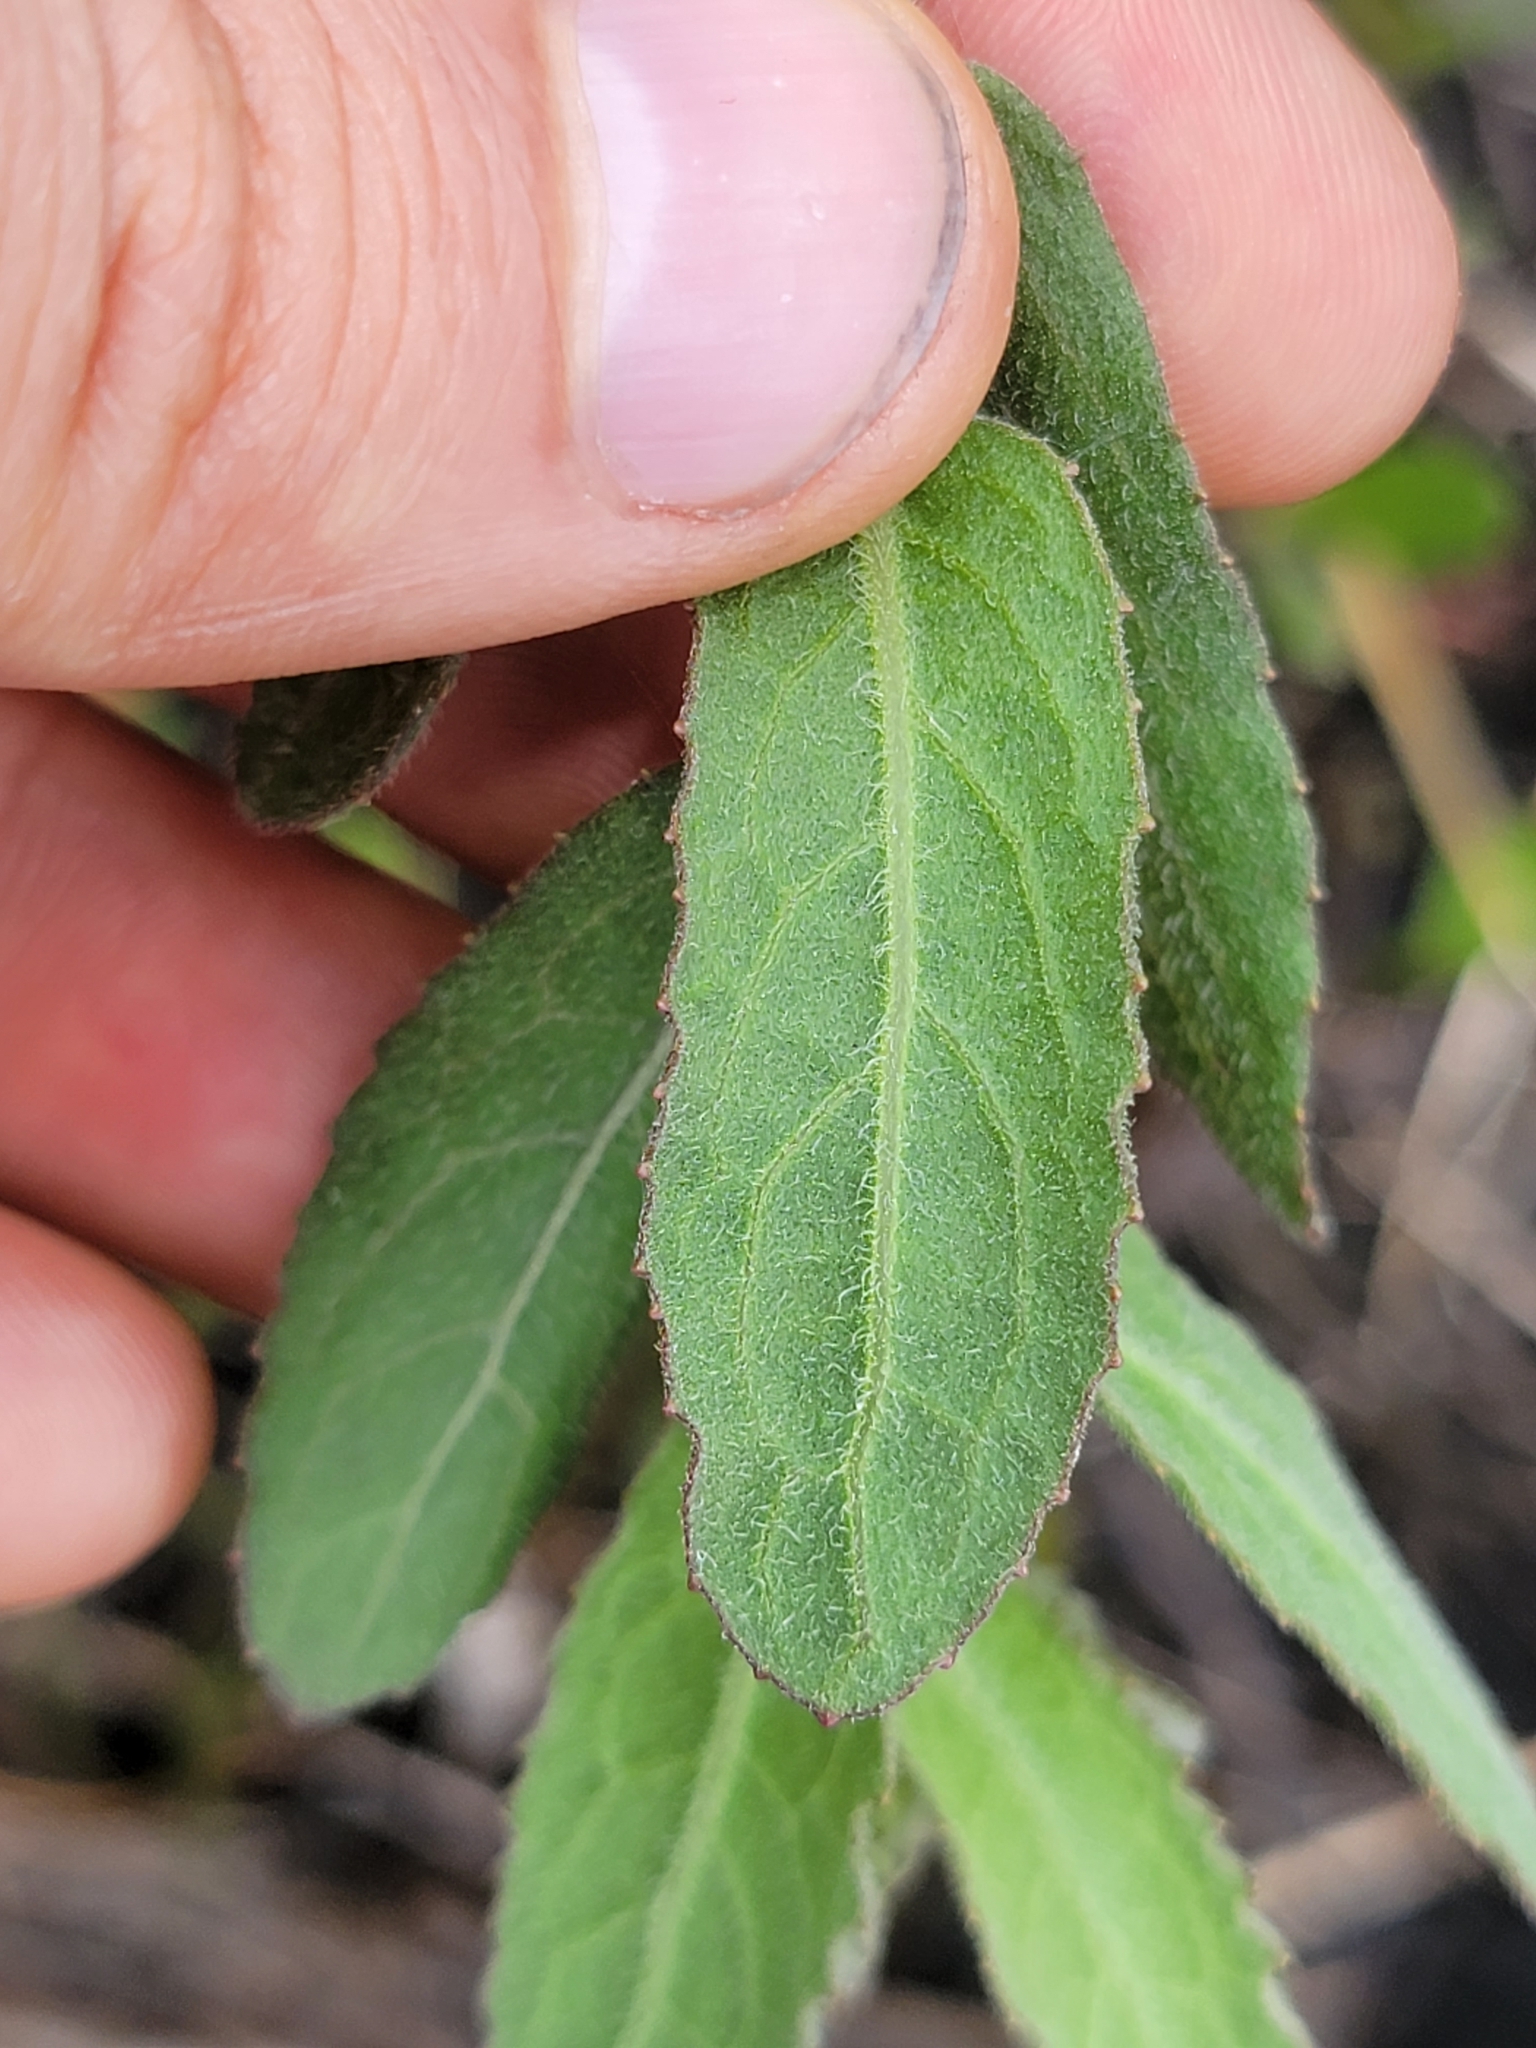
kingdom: Plantae
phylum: Tracheophyta
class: Magnoliopsida
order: Asterales
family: Asteraceae
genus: Pluchea
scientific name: Pluchea baccharis
